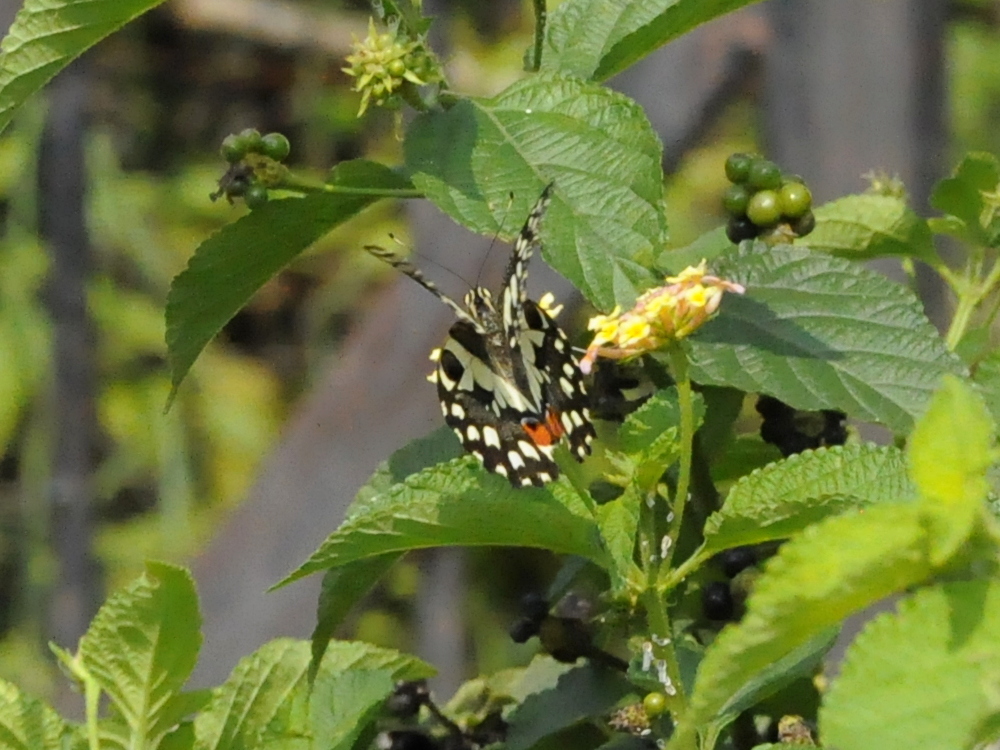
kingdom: Animalia
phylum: Arthropoda
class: Insecta
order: Lepidoptera
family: Papilionidae
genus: Papilio
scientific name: Papilio demoleus
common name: Lime butterfly
